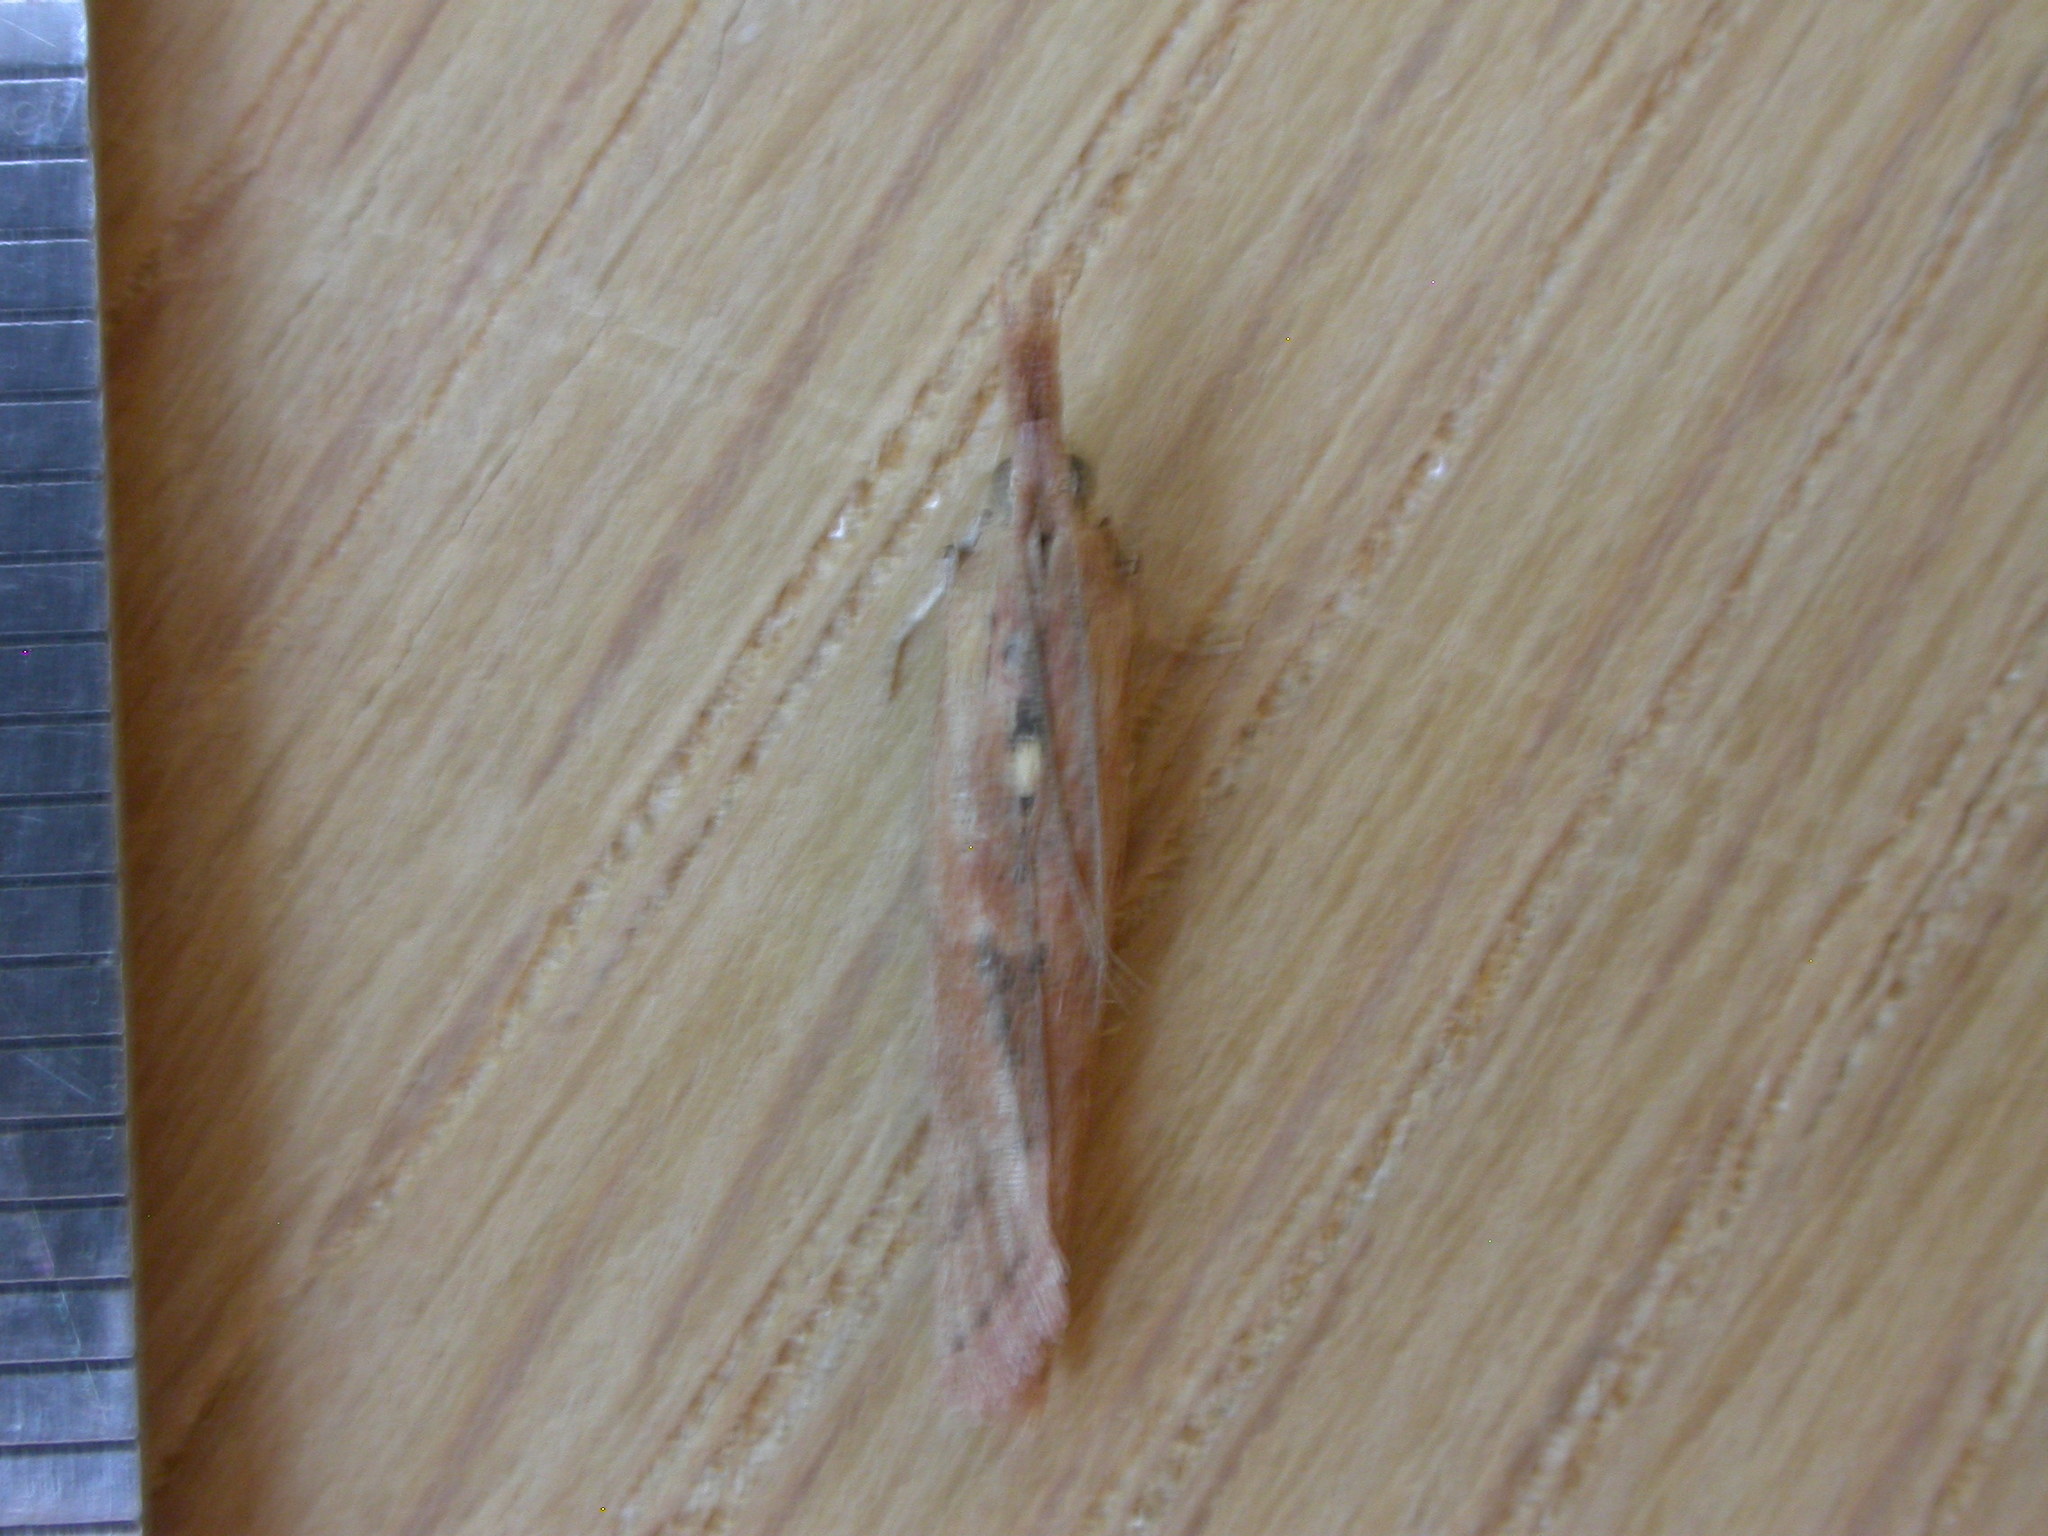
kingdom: Animalia
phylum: Arthropoda
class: Insecta
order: Lepidoptera
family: Pyralidae
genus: Faveria
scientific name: Faveria tritalis
